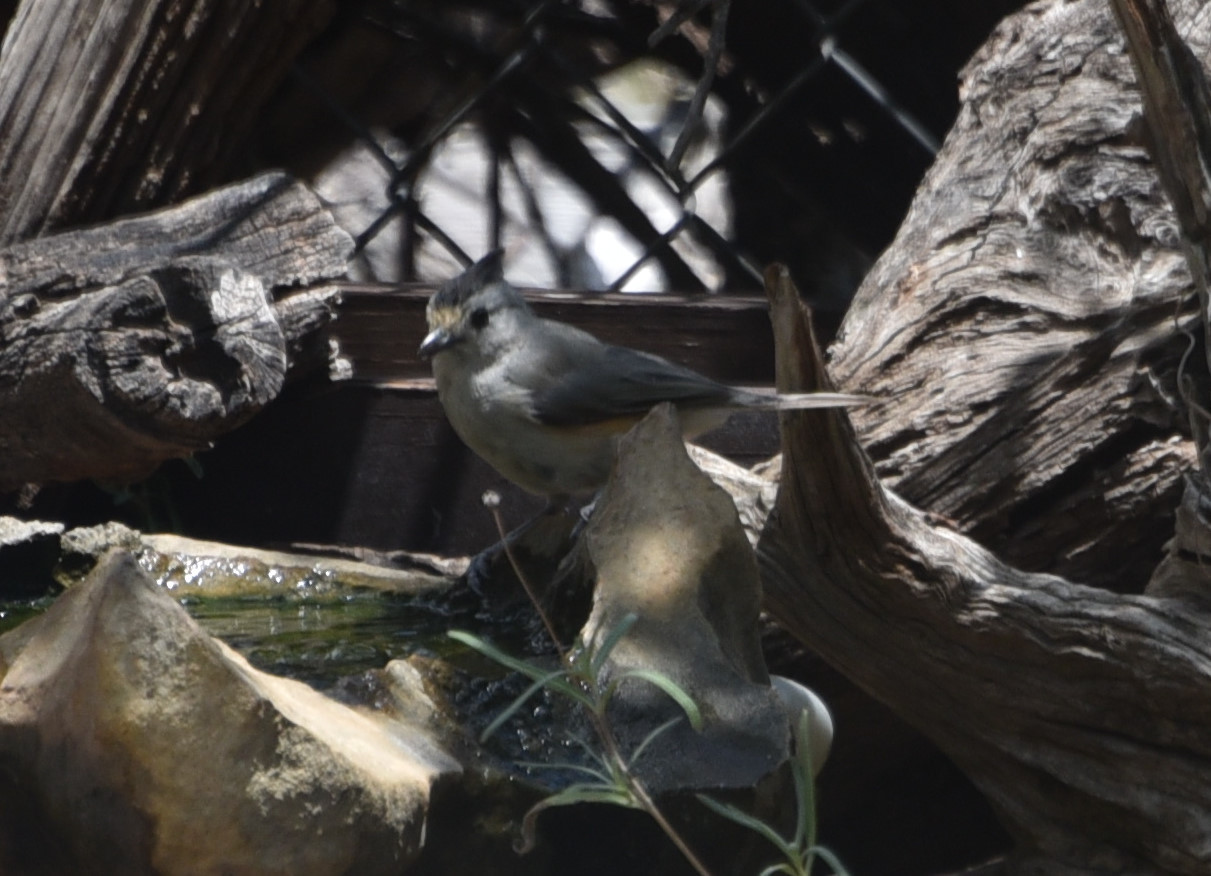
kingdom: Animalia
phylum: Chordata
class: Aves
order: Passeriformes
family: Paridae
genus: Baeolophus
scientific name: Baeolophus atricristatus
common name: Black-crested titmouse
